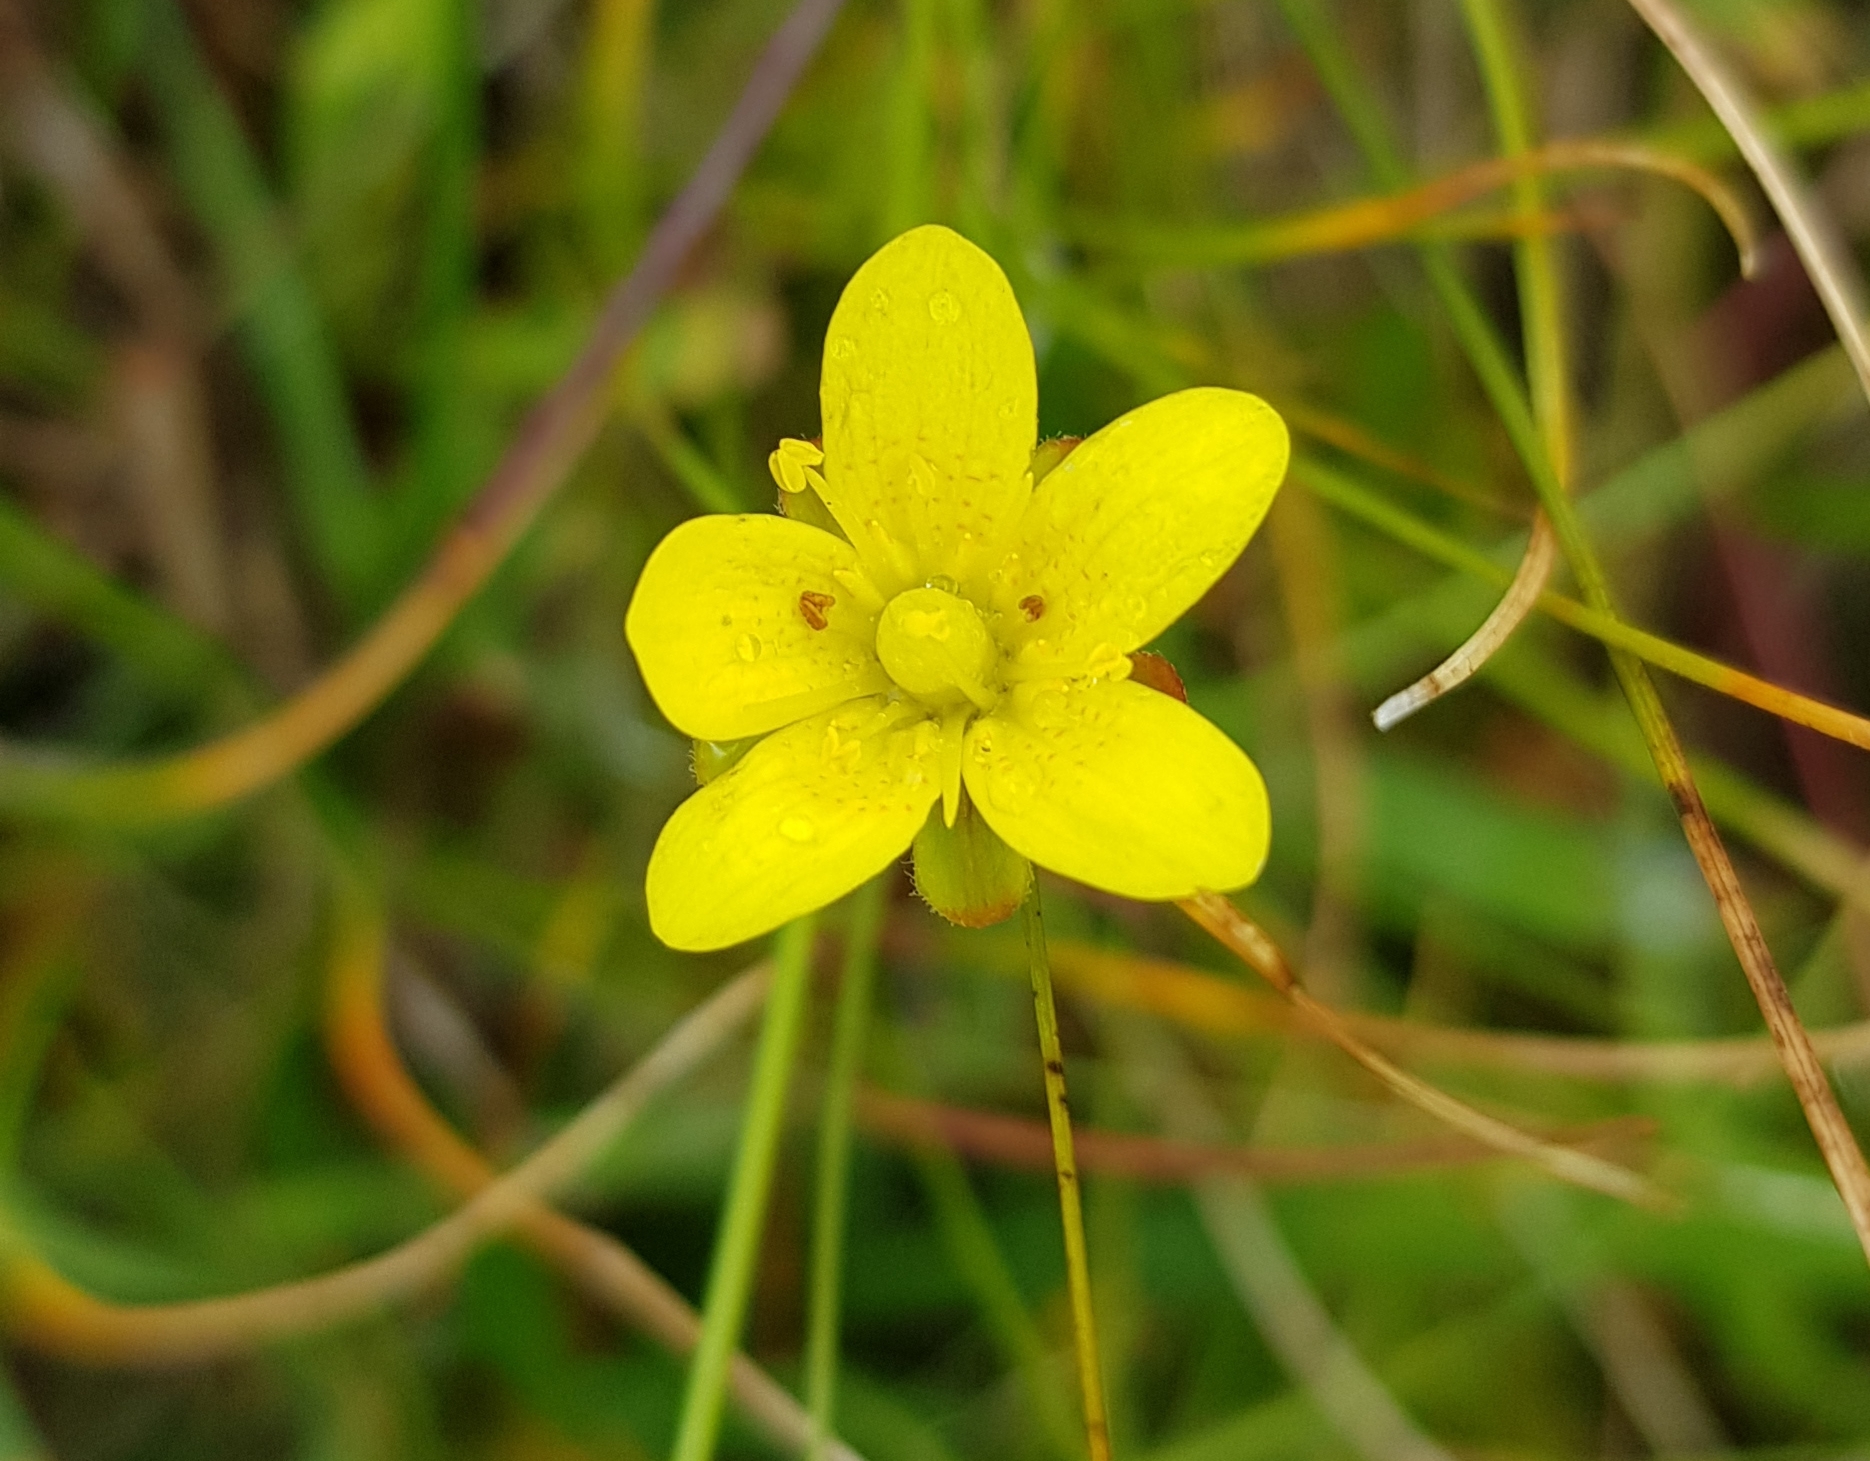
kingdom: Plantae
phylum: Tracheophyta
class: Magnoliopsida
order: Saxifragales
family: Saxifragaceae
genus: Saxifraga
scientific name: Saxifraga hirculus
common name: Yellow marsh saxifrage
